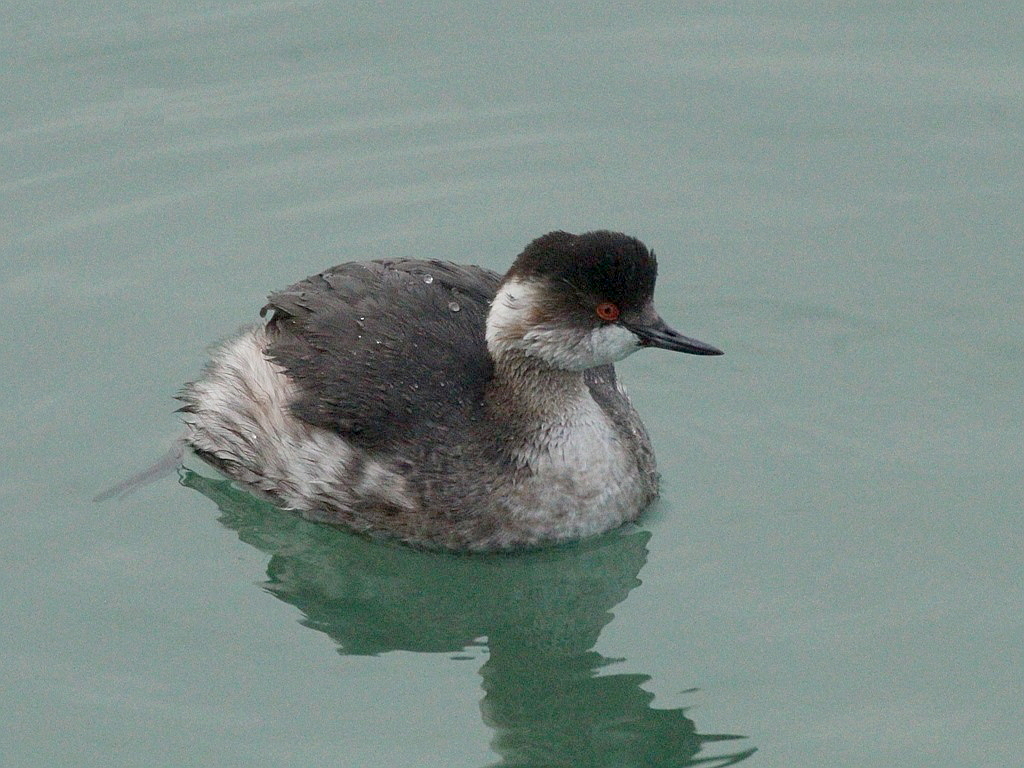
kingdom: Animalia
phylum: Chordata
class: Aves
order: Podicipediformes
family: Podicipedidae
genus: Podiceps
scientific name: Podiceps nigricollis
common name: Black-necked grebe
